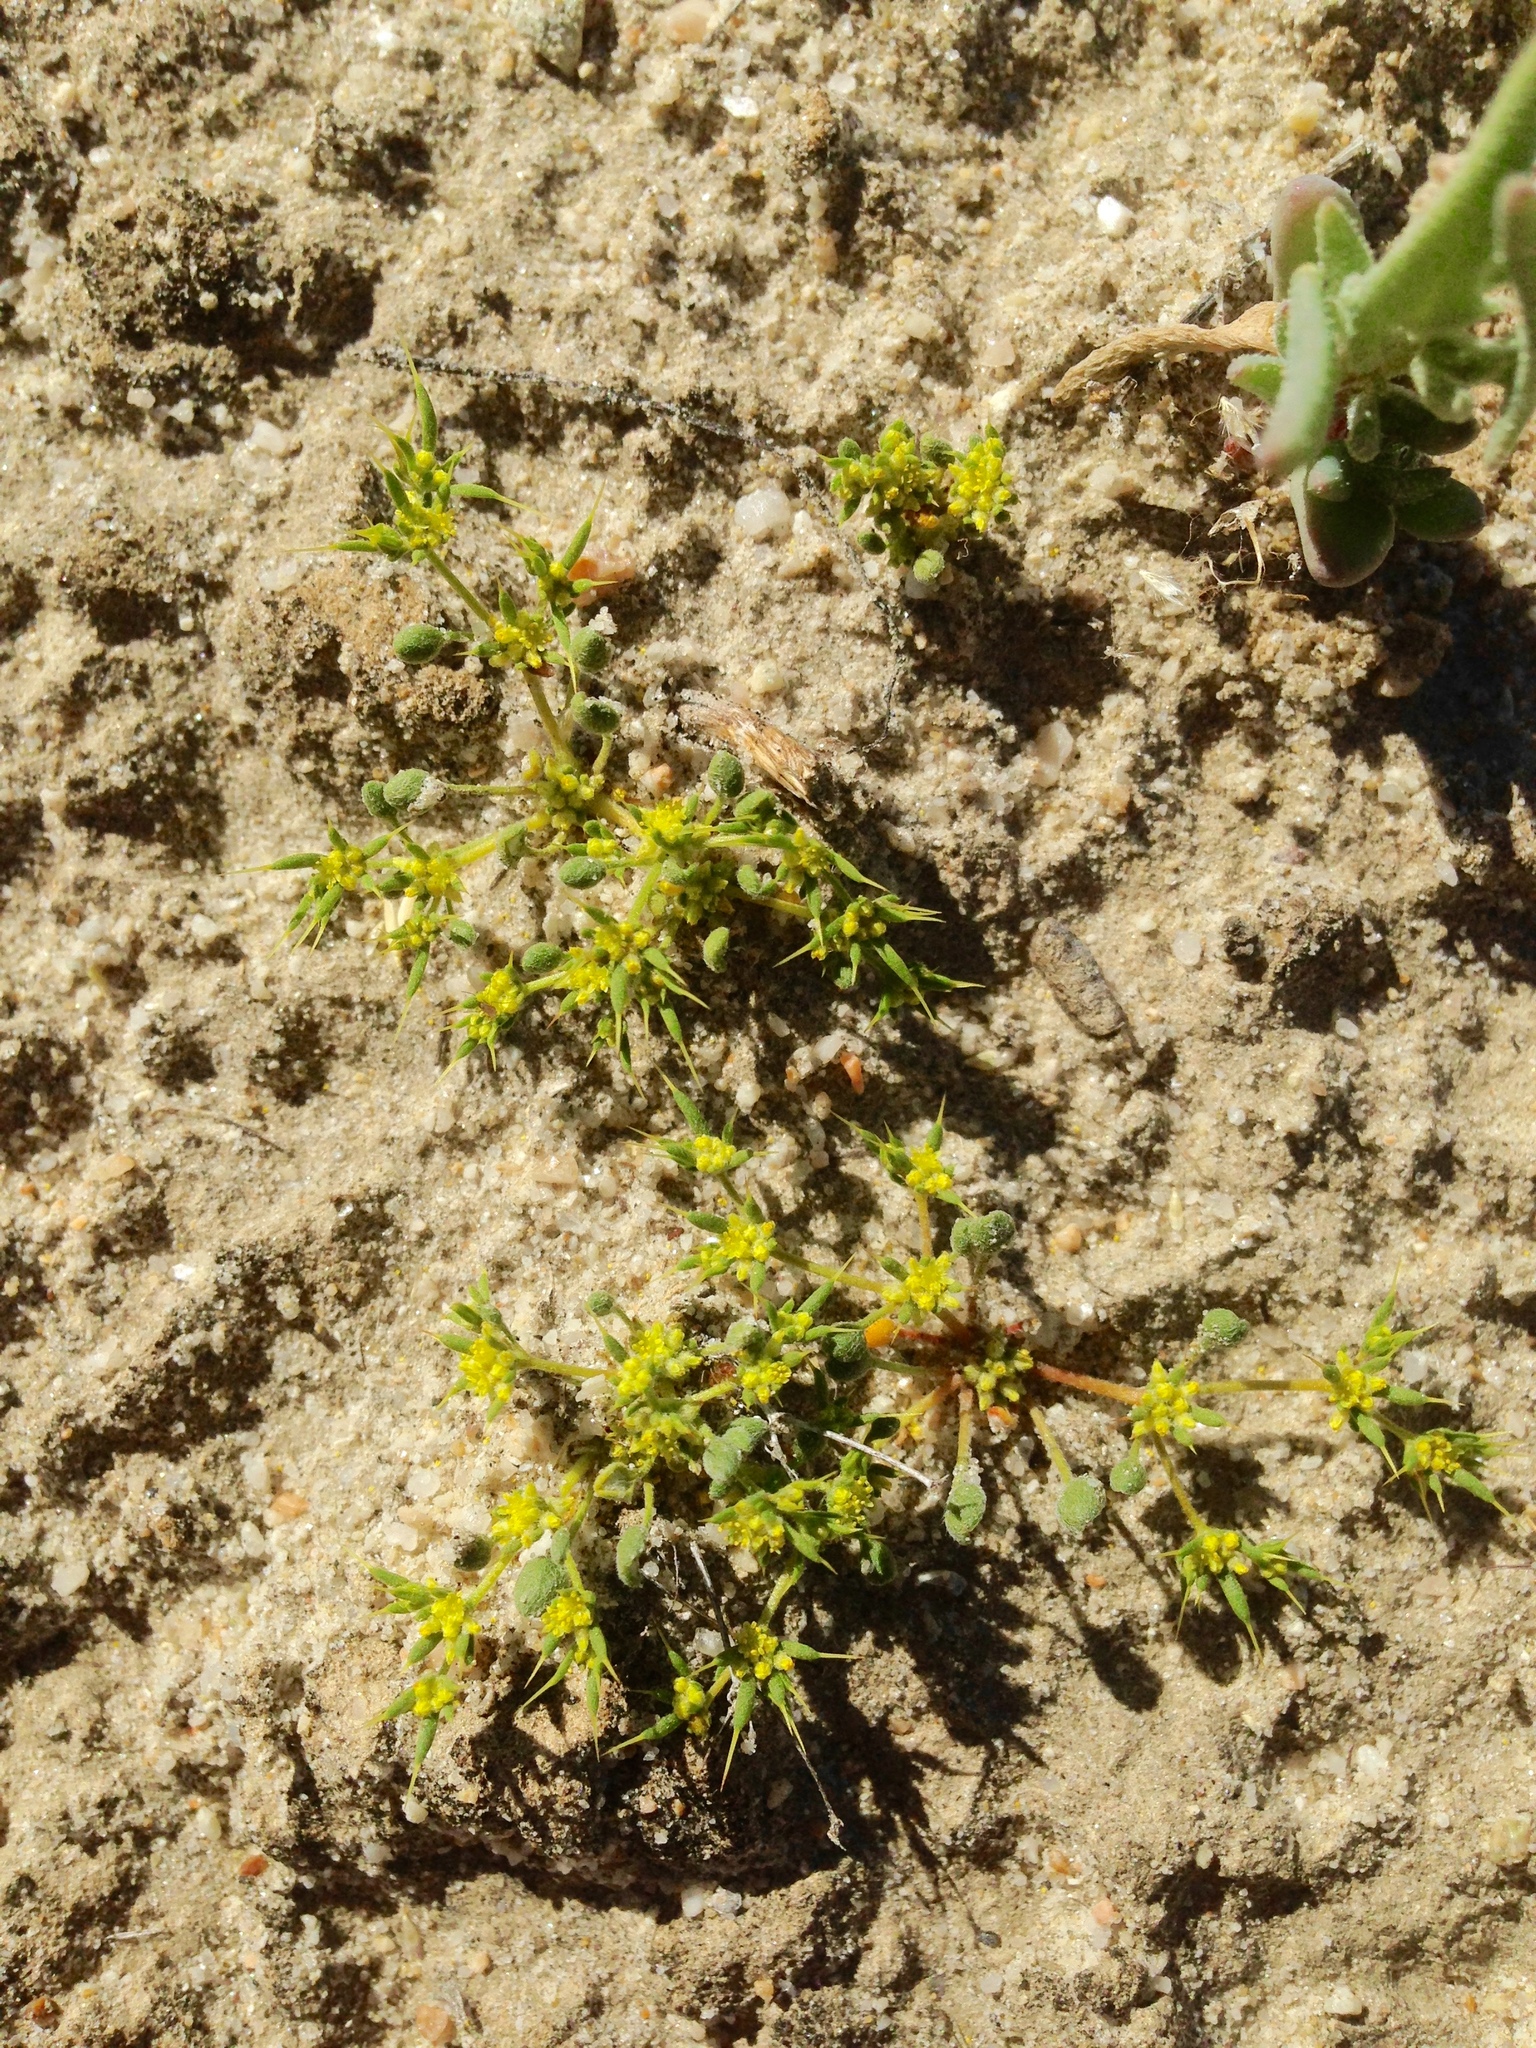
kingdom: Plantae
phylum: Tracheophyta
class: Magnoliopsida
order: Caryophyllales
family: Polygonaceae
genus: Goodmania
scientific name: Goodmania luteola
